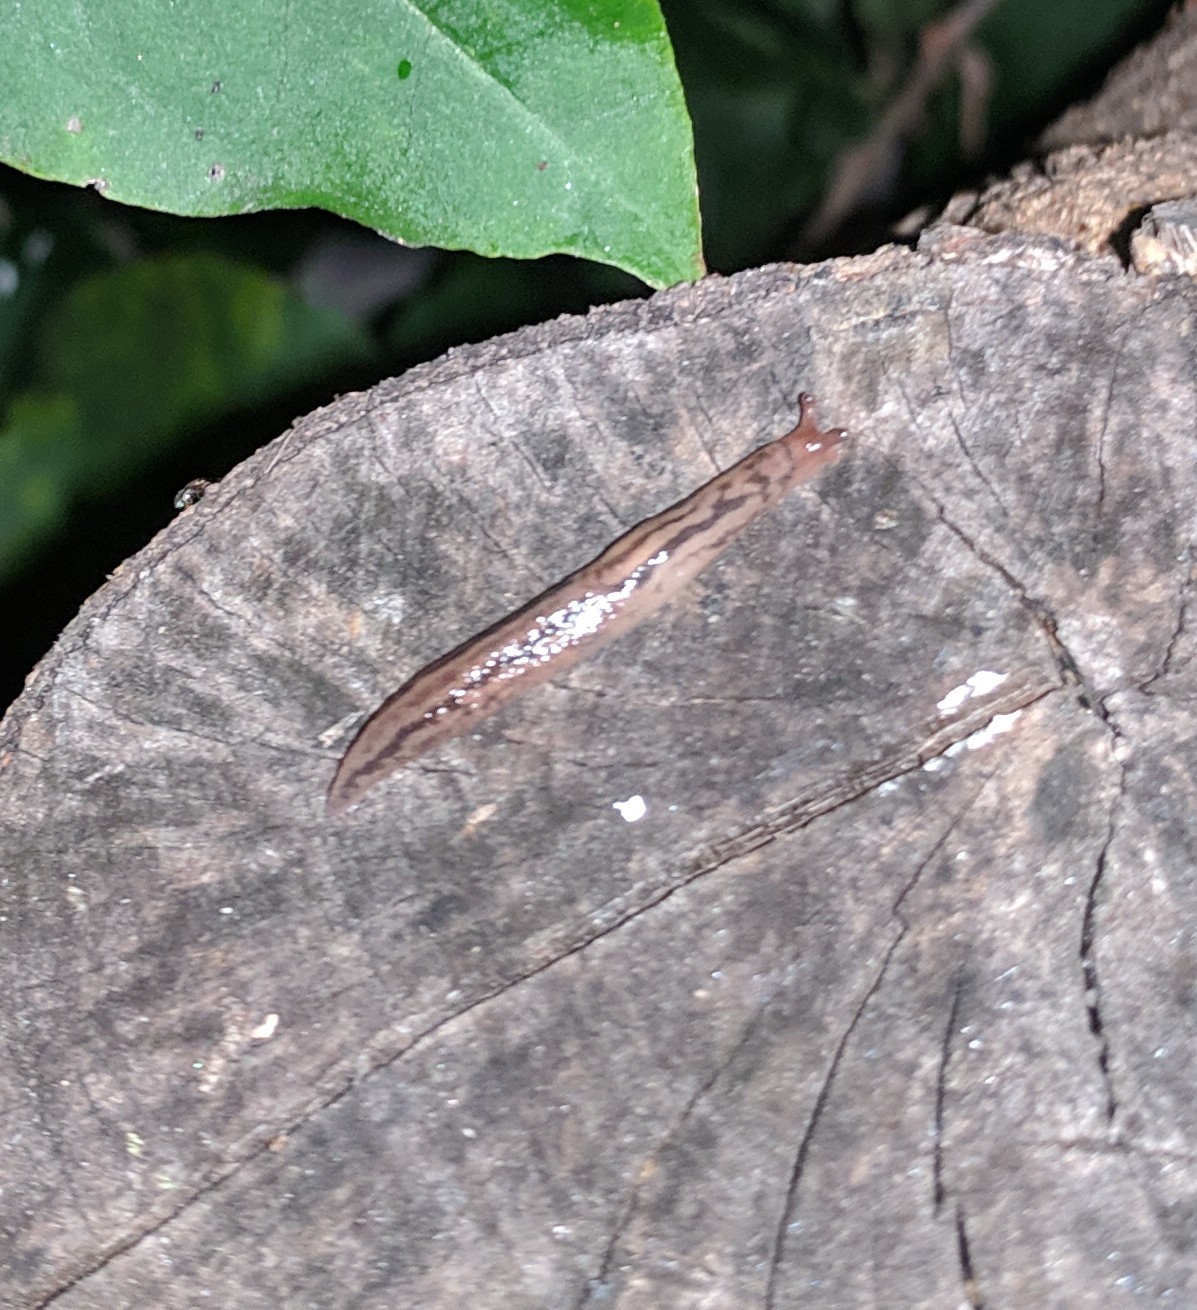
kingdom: Animalia
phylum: Mollusca
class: Gastropoda
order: Stylommatophora
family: Limacidae
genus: Ambigolimax
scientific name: Ambigolimax
